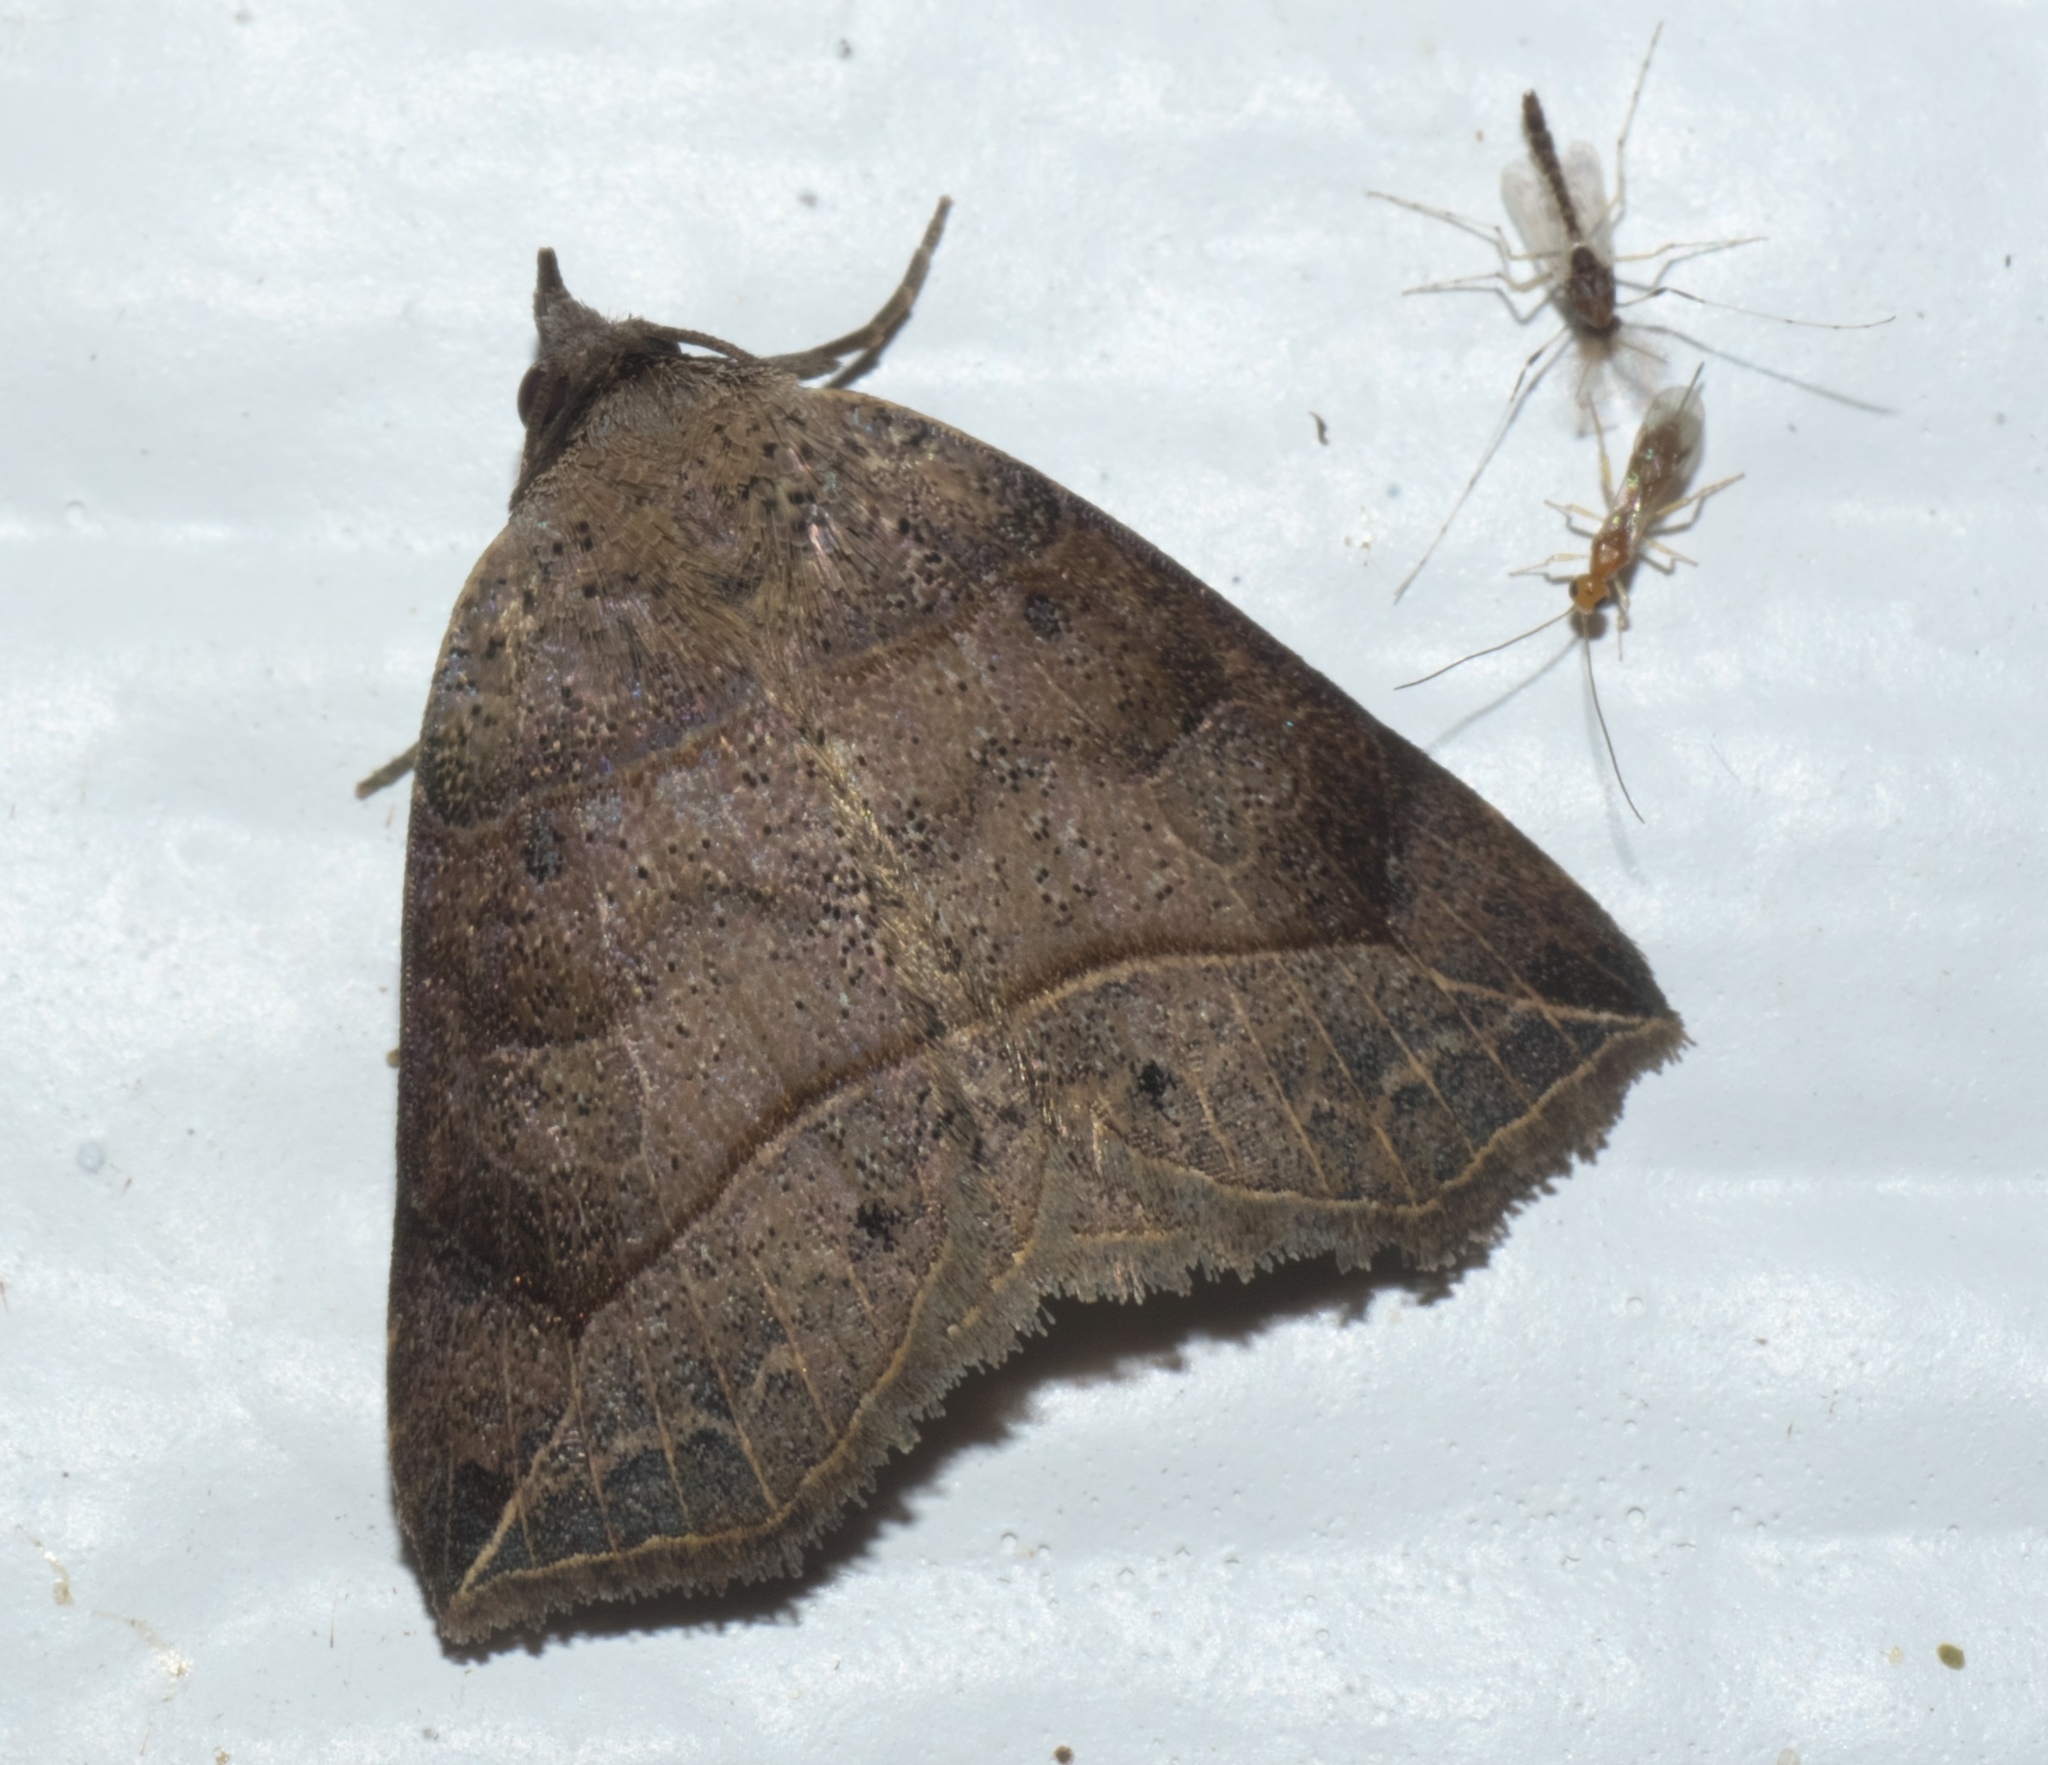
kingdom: Animalia
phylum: Arthropoda
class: Insecta
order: Lepidoptera
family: Erebidae
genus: Isogona
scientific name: Isogona tenuis
